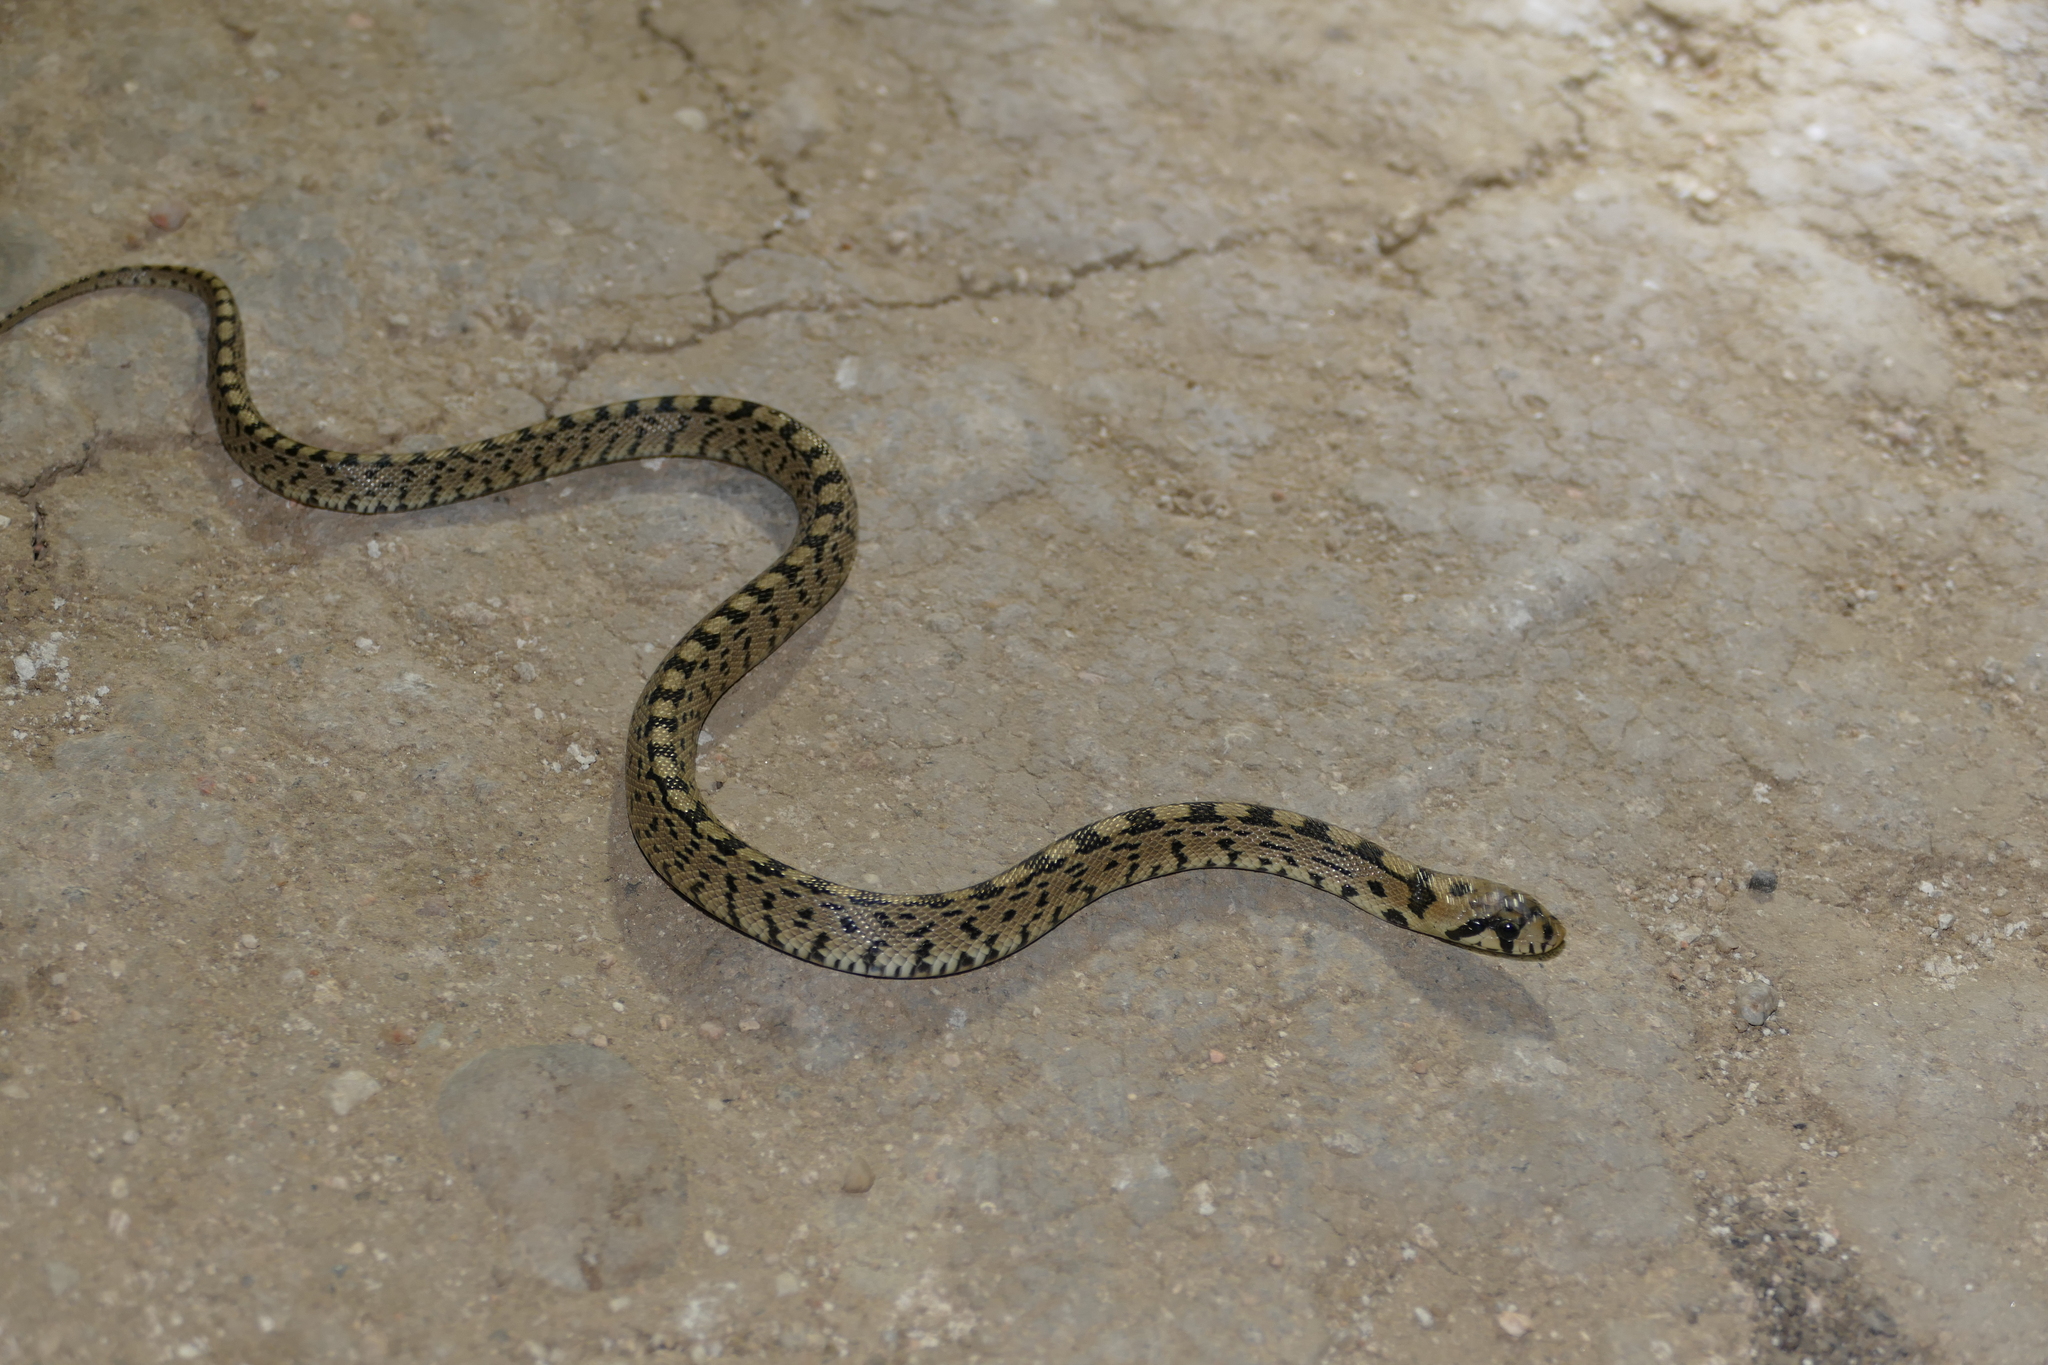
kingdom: Animalia
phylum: Chordata
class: Squamata
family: Colubridae
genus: Zamenis
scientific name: Zamenis scalaris
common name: Ladder snakes
